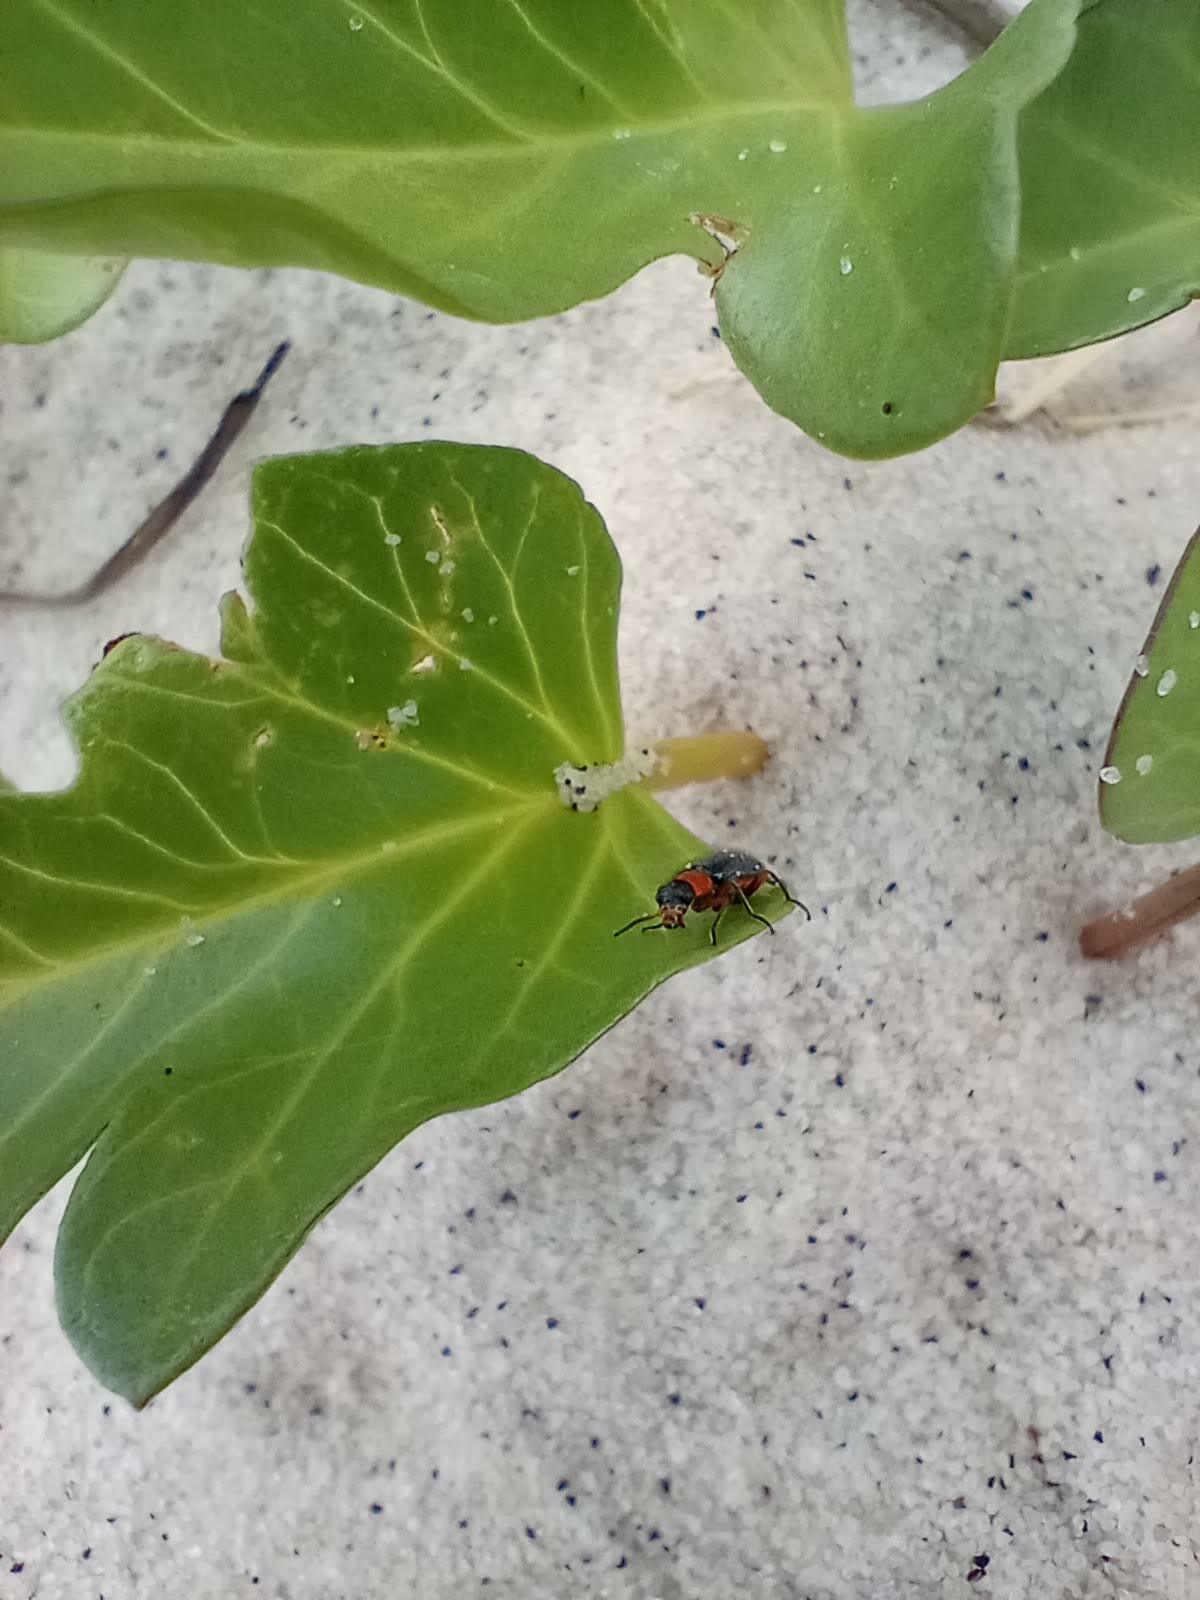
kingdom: Plantae
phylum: Tracheophyta
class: Magnoliopsida
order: Solanales
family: Convolvulaceae
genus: Ipomoea
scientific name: Ipomoea imperati
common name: Fiddle-leaf morning-glory
